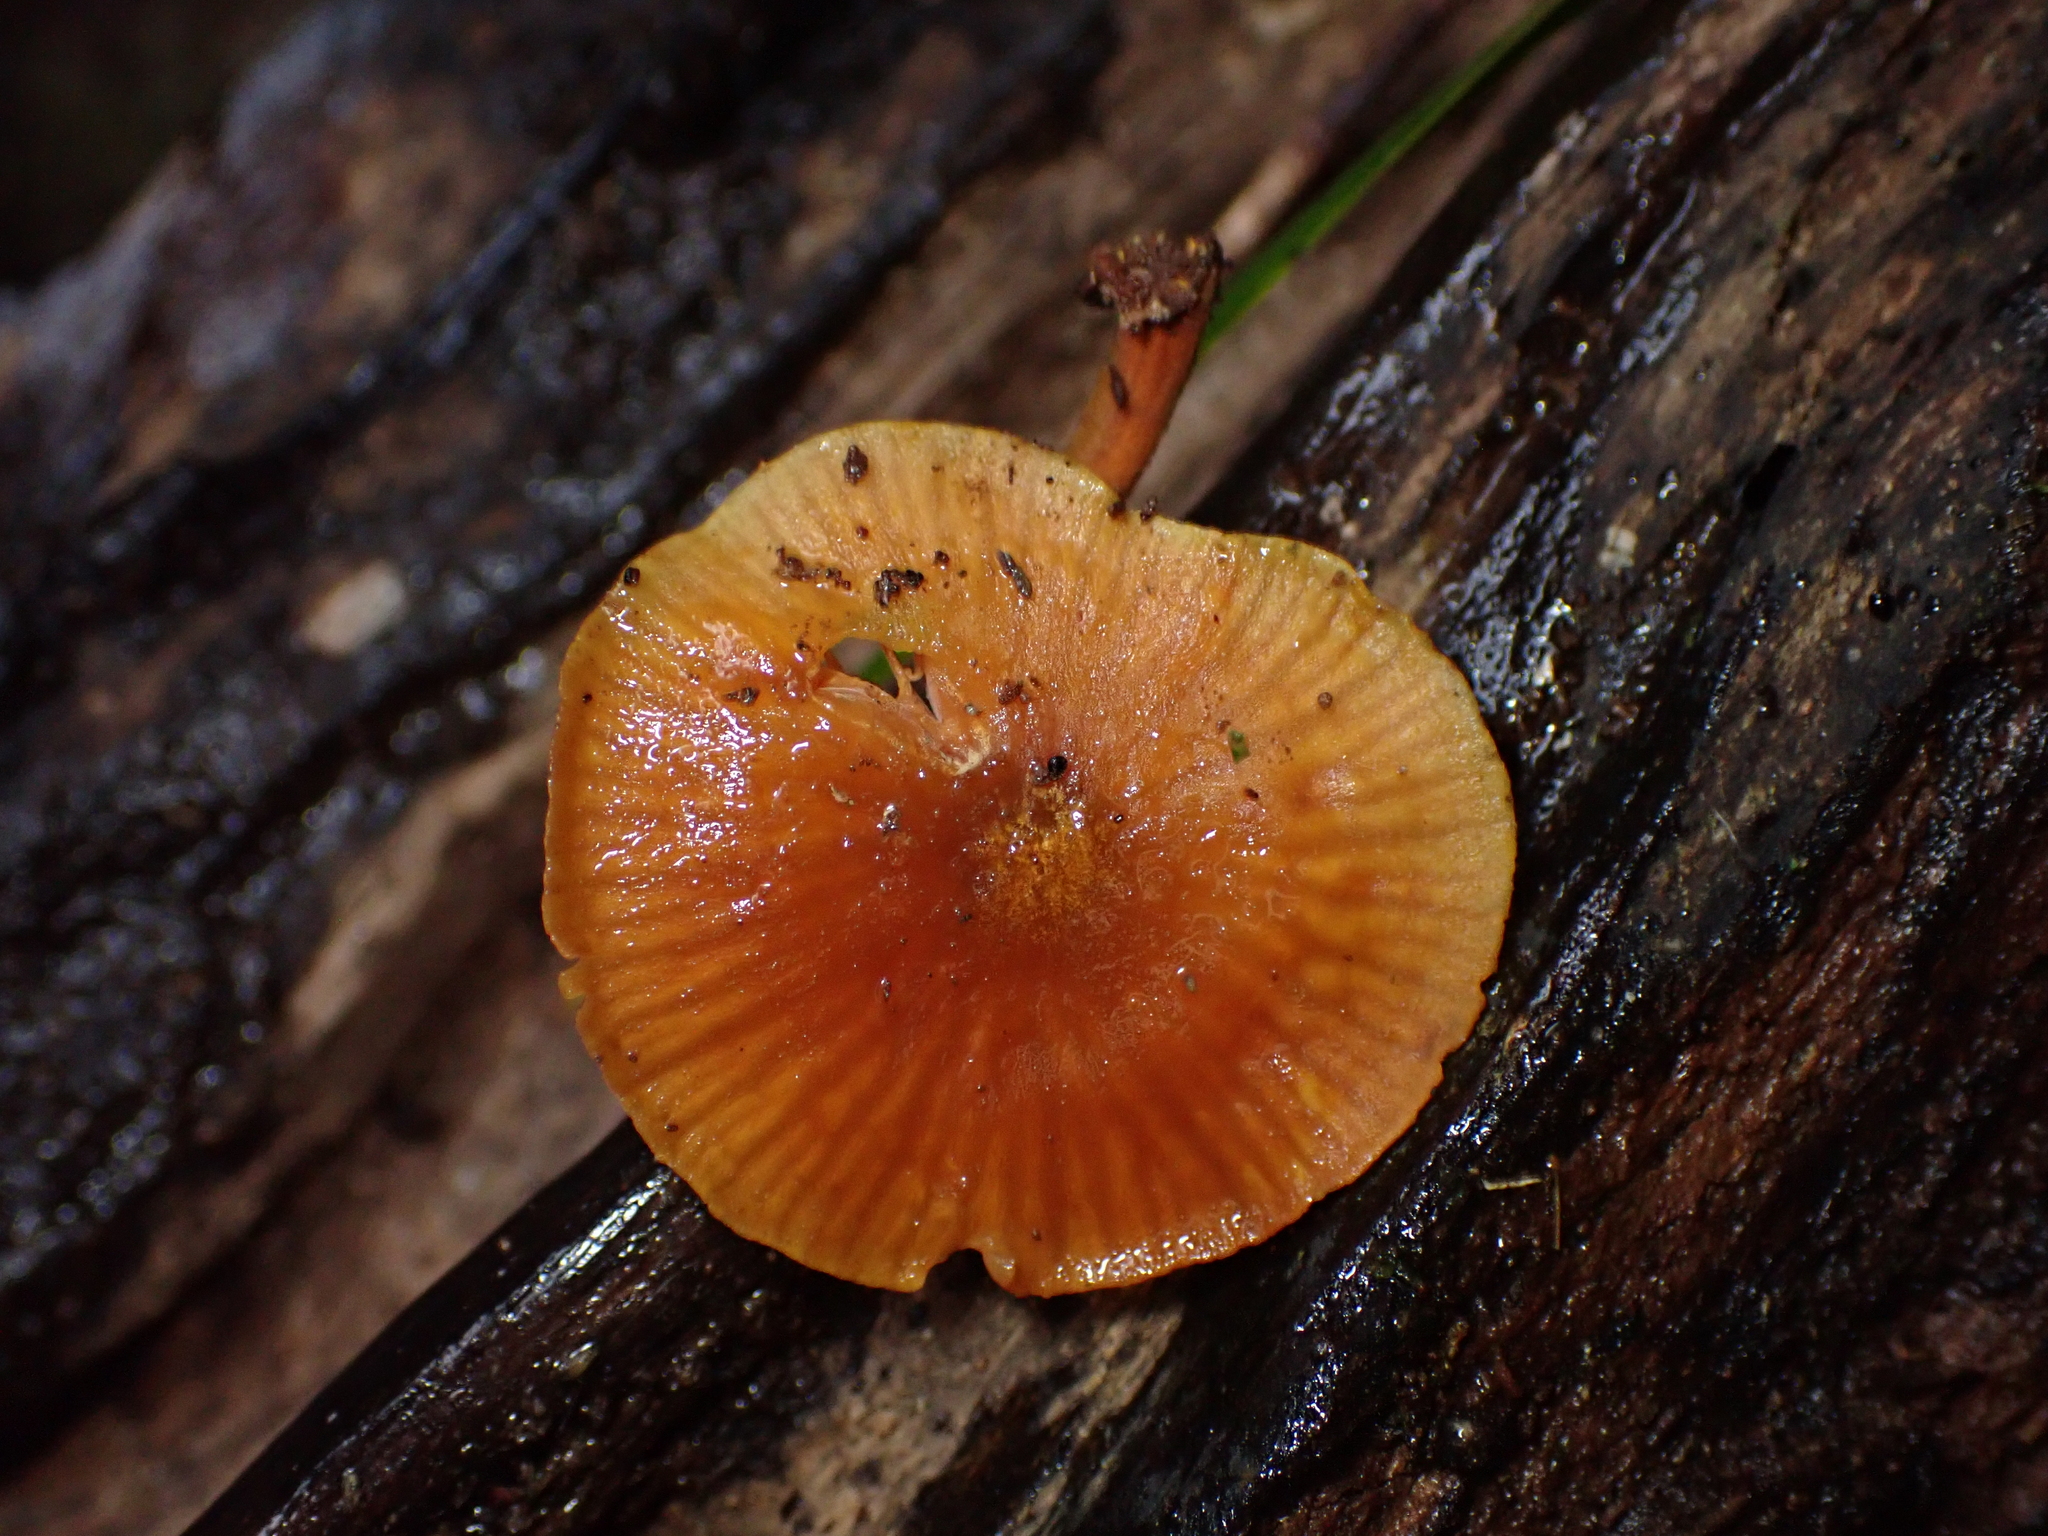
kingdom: Fungi
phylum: Basidiomycota
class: Agaricomycetes
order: Agaricales
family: Mycenaceae
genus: Heimiomyces
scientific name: Heimiomyces velutipes
